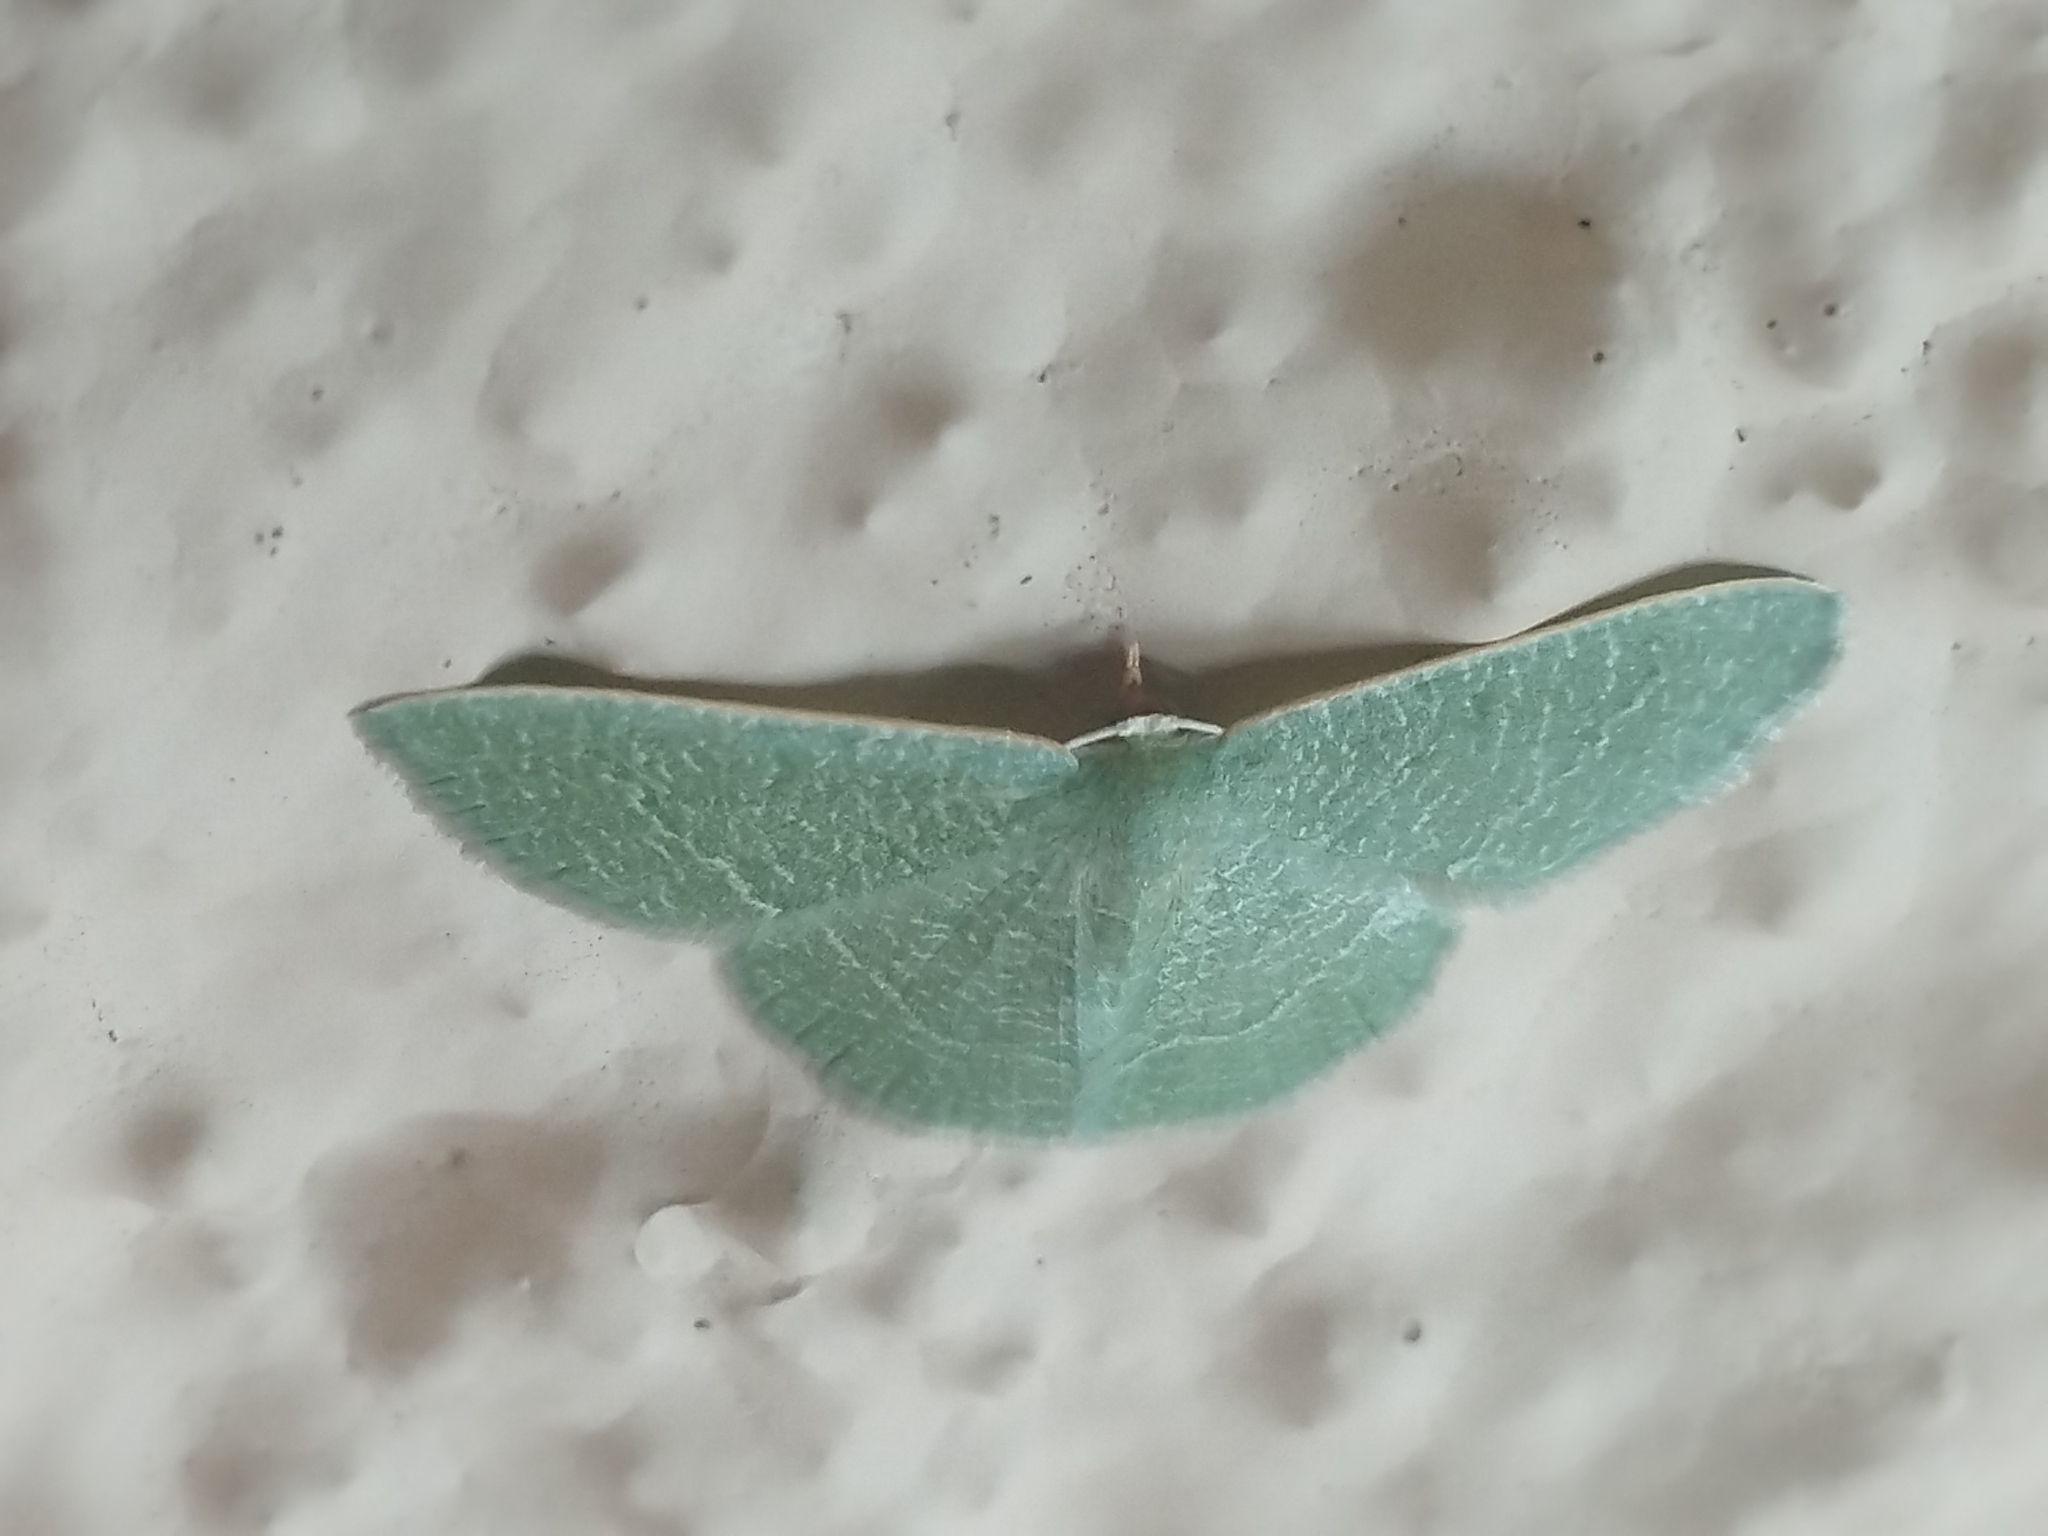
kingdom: Animalia
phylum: Arthropoda
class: Insecta
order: Lepidoptera
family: Geometridae
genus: Chlorissa
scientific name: Chlorissa etruscaria
